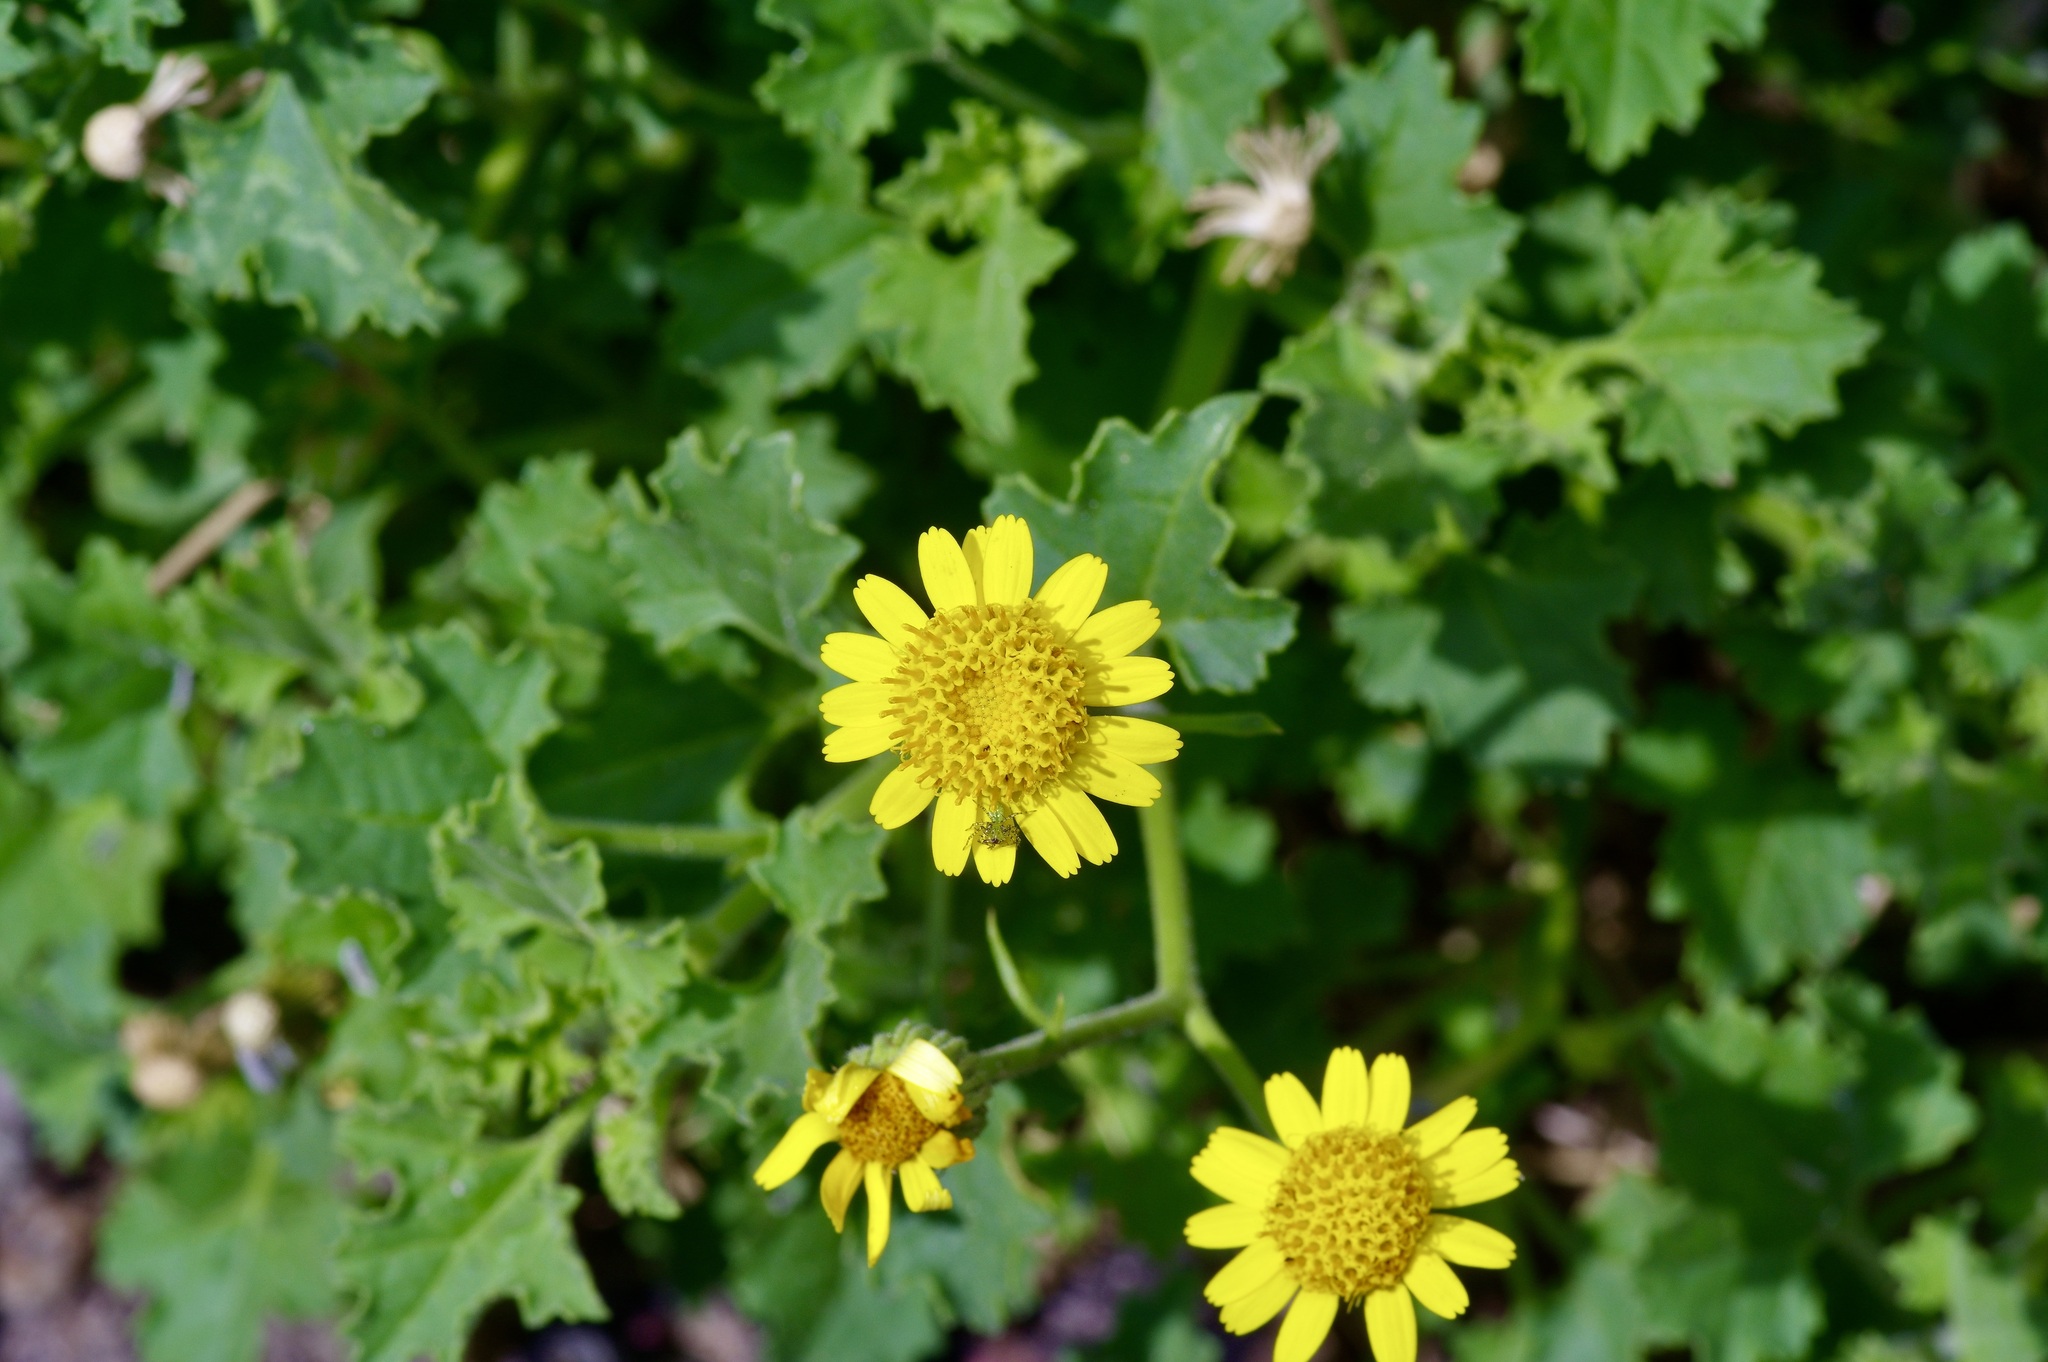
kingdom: Plantae
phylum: Tracheophyta
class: Magnoliopsida
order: Asterales
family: Asteraceae
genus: Laphamia
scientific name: Laphamia parryi
